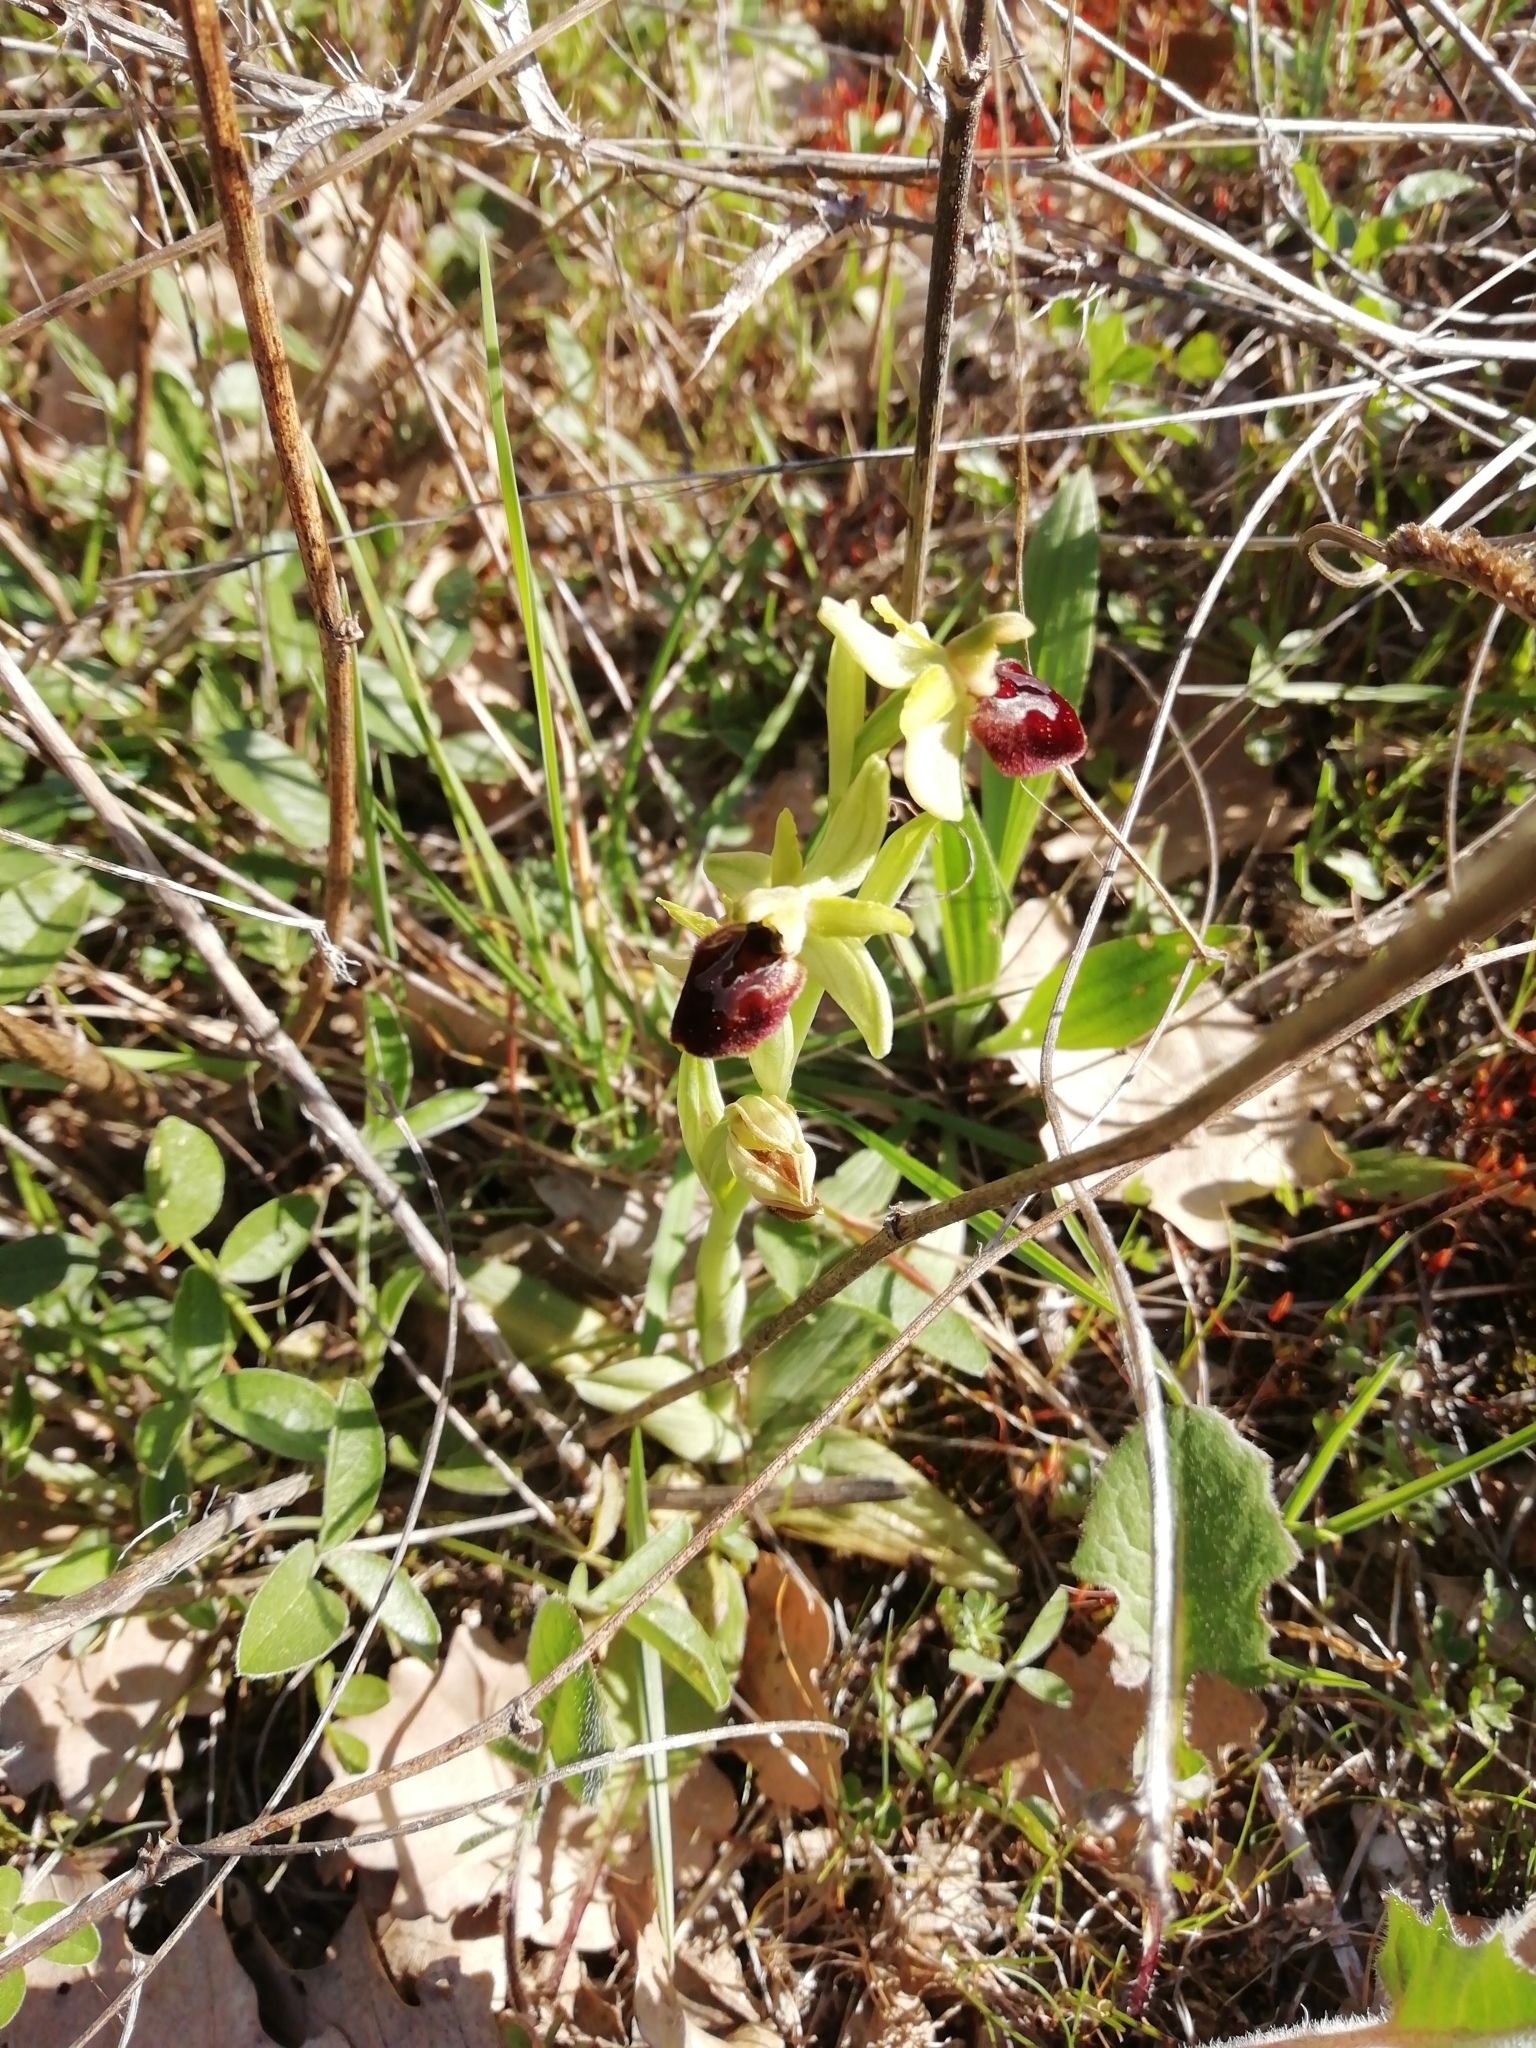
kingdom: Plantae
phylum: Tracheophyta
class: Liliopsida
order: Asparagales
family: Orchidaceae
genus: Ophrys
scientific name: Ophrys arachnitiformis
